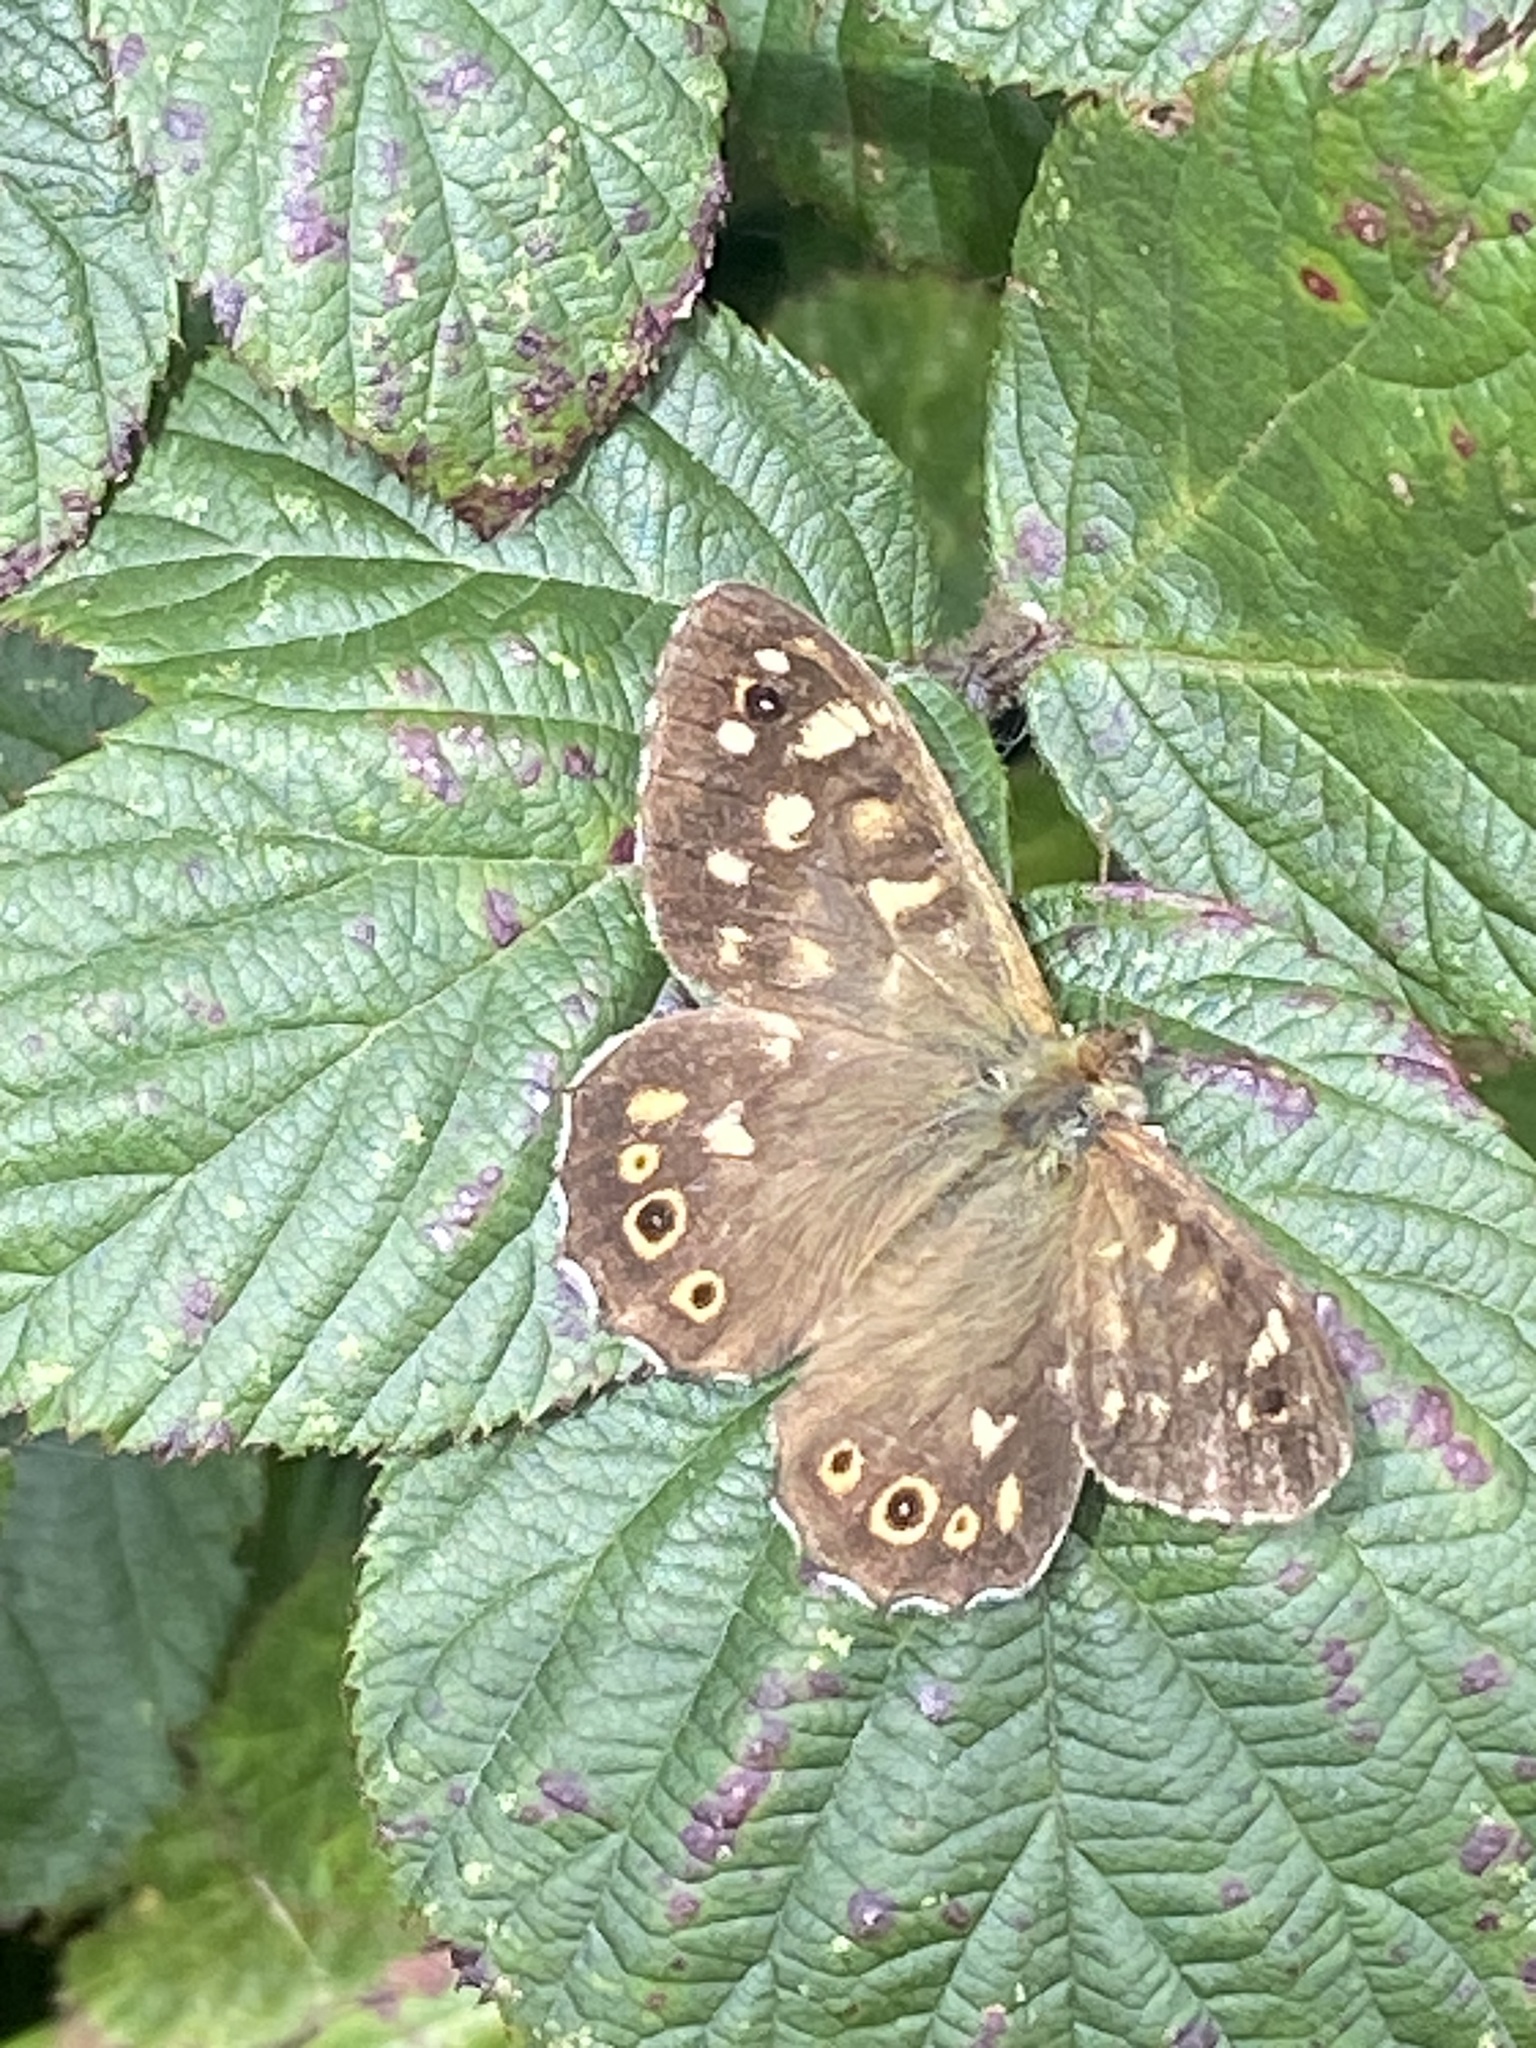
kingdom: Animalia
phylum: Arthropoda
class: Insecta
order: Lepidoptera
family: Nymphalidae
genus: Pararge
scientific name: Pararge aegeria
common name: Speckled wood
